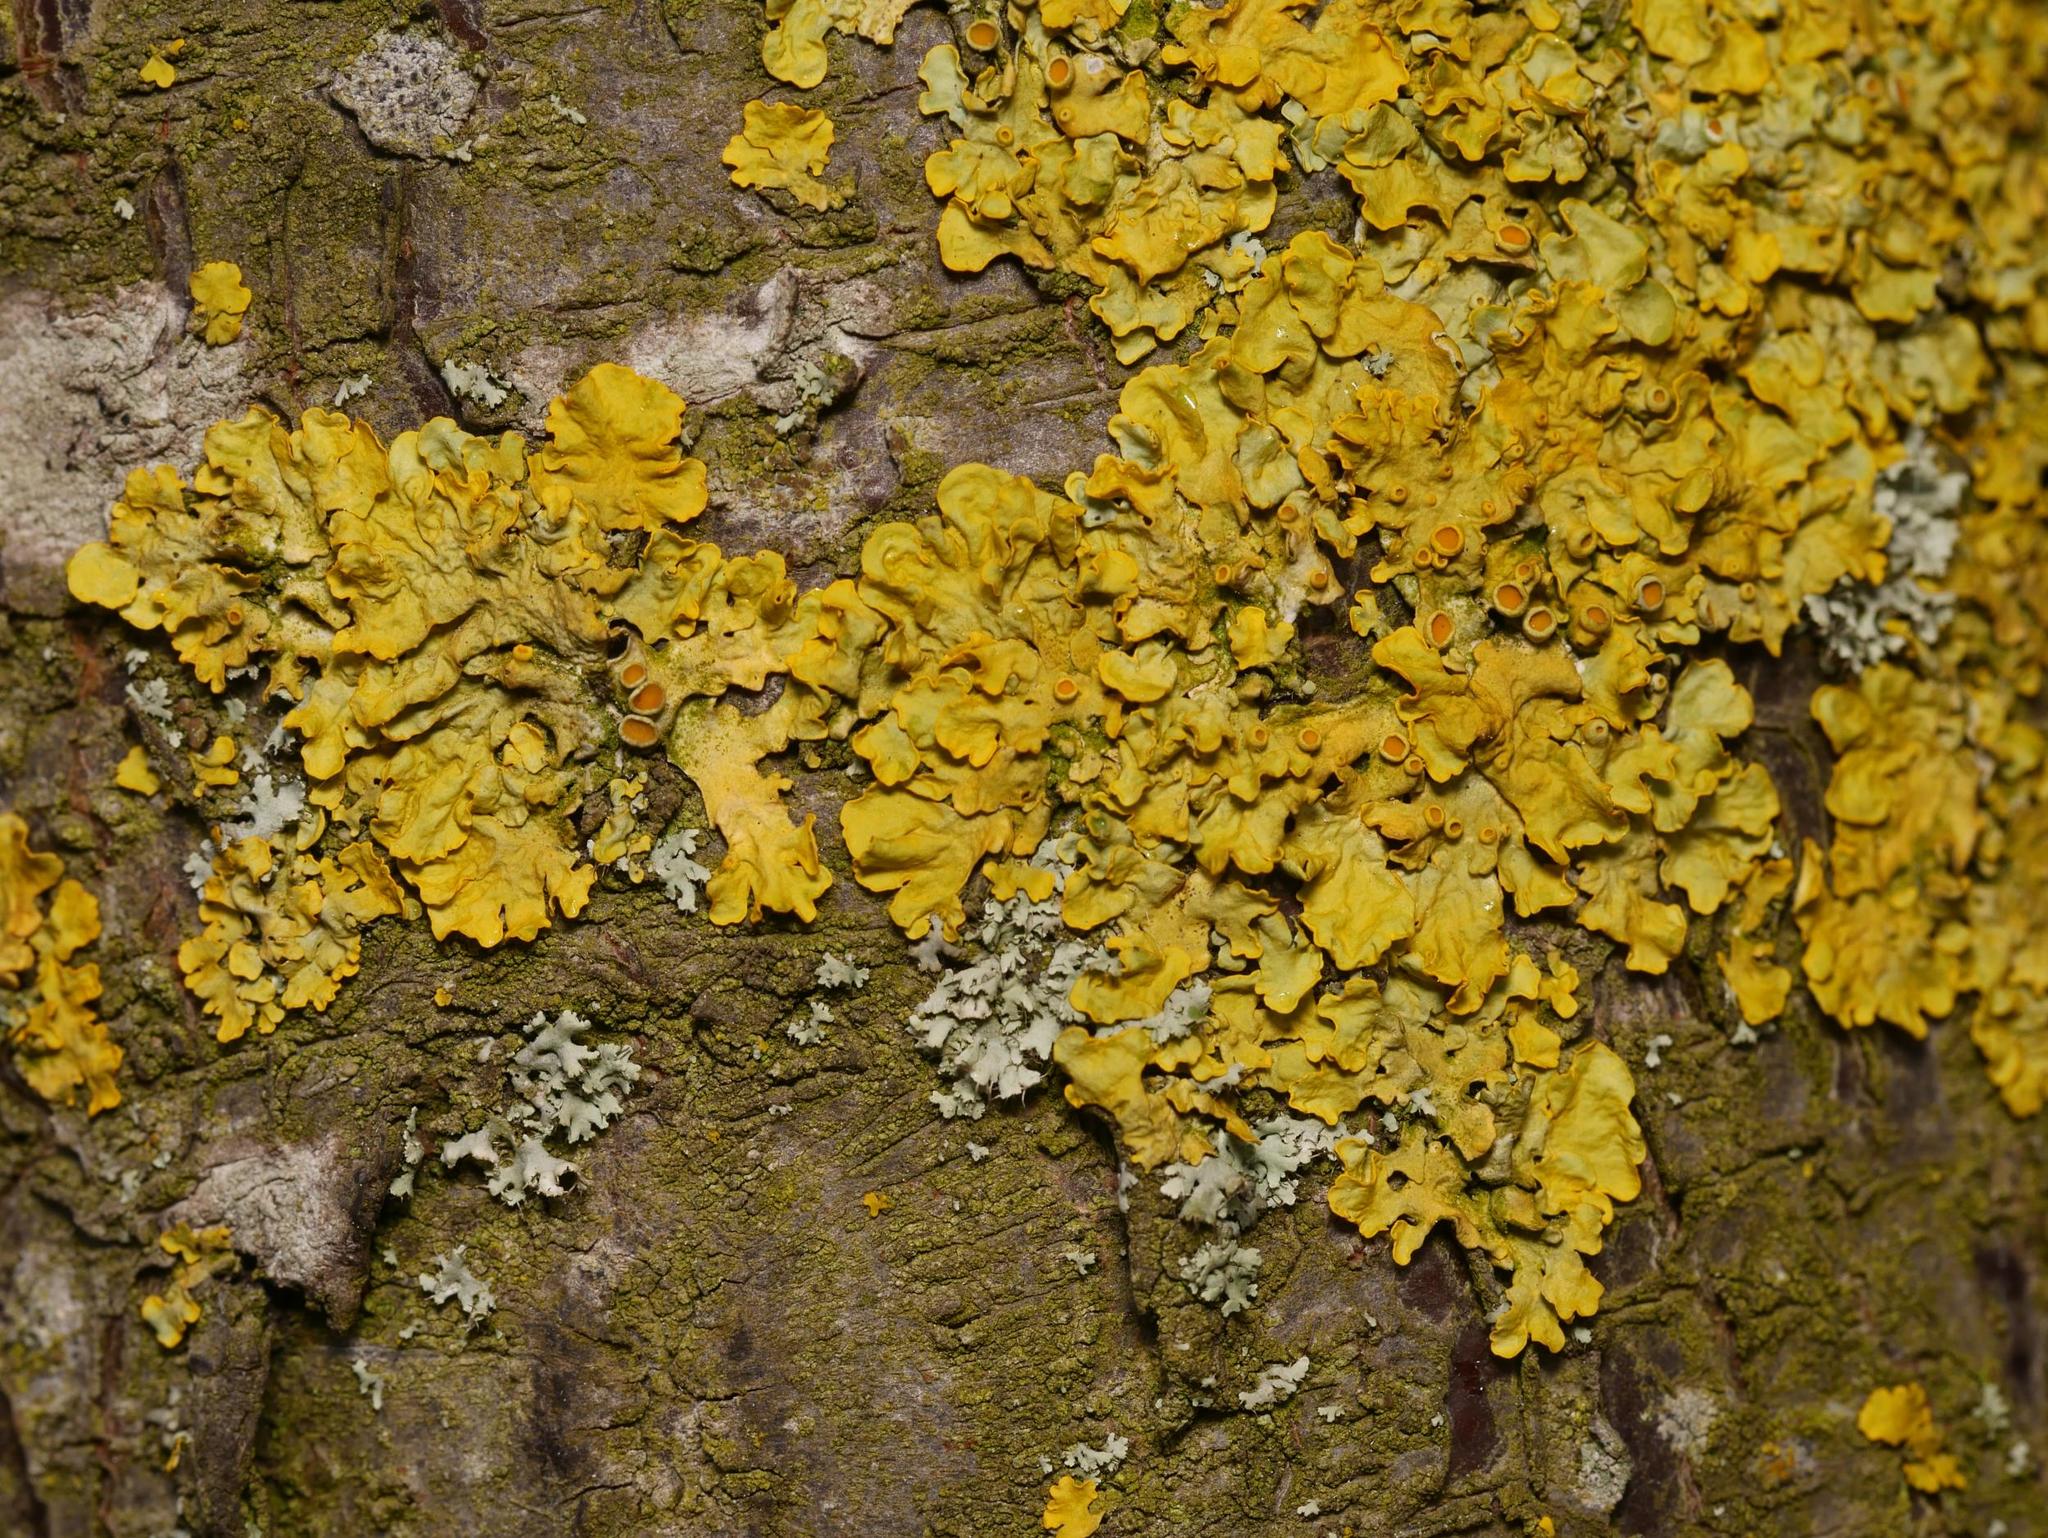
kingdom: Fungi
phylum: Ascomycota
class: Lecanoromycetes
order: Teloschistales
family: Teloschistaceae
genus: Xanthoria
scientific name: Xanthoria parietina
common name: Common orange lichen
